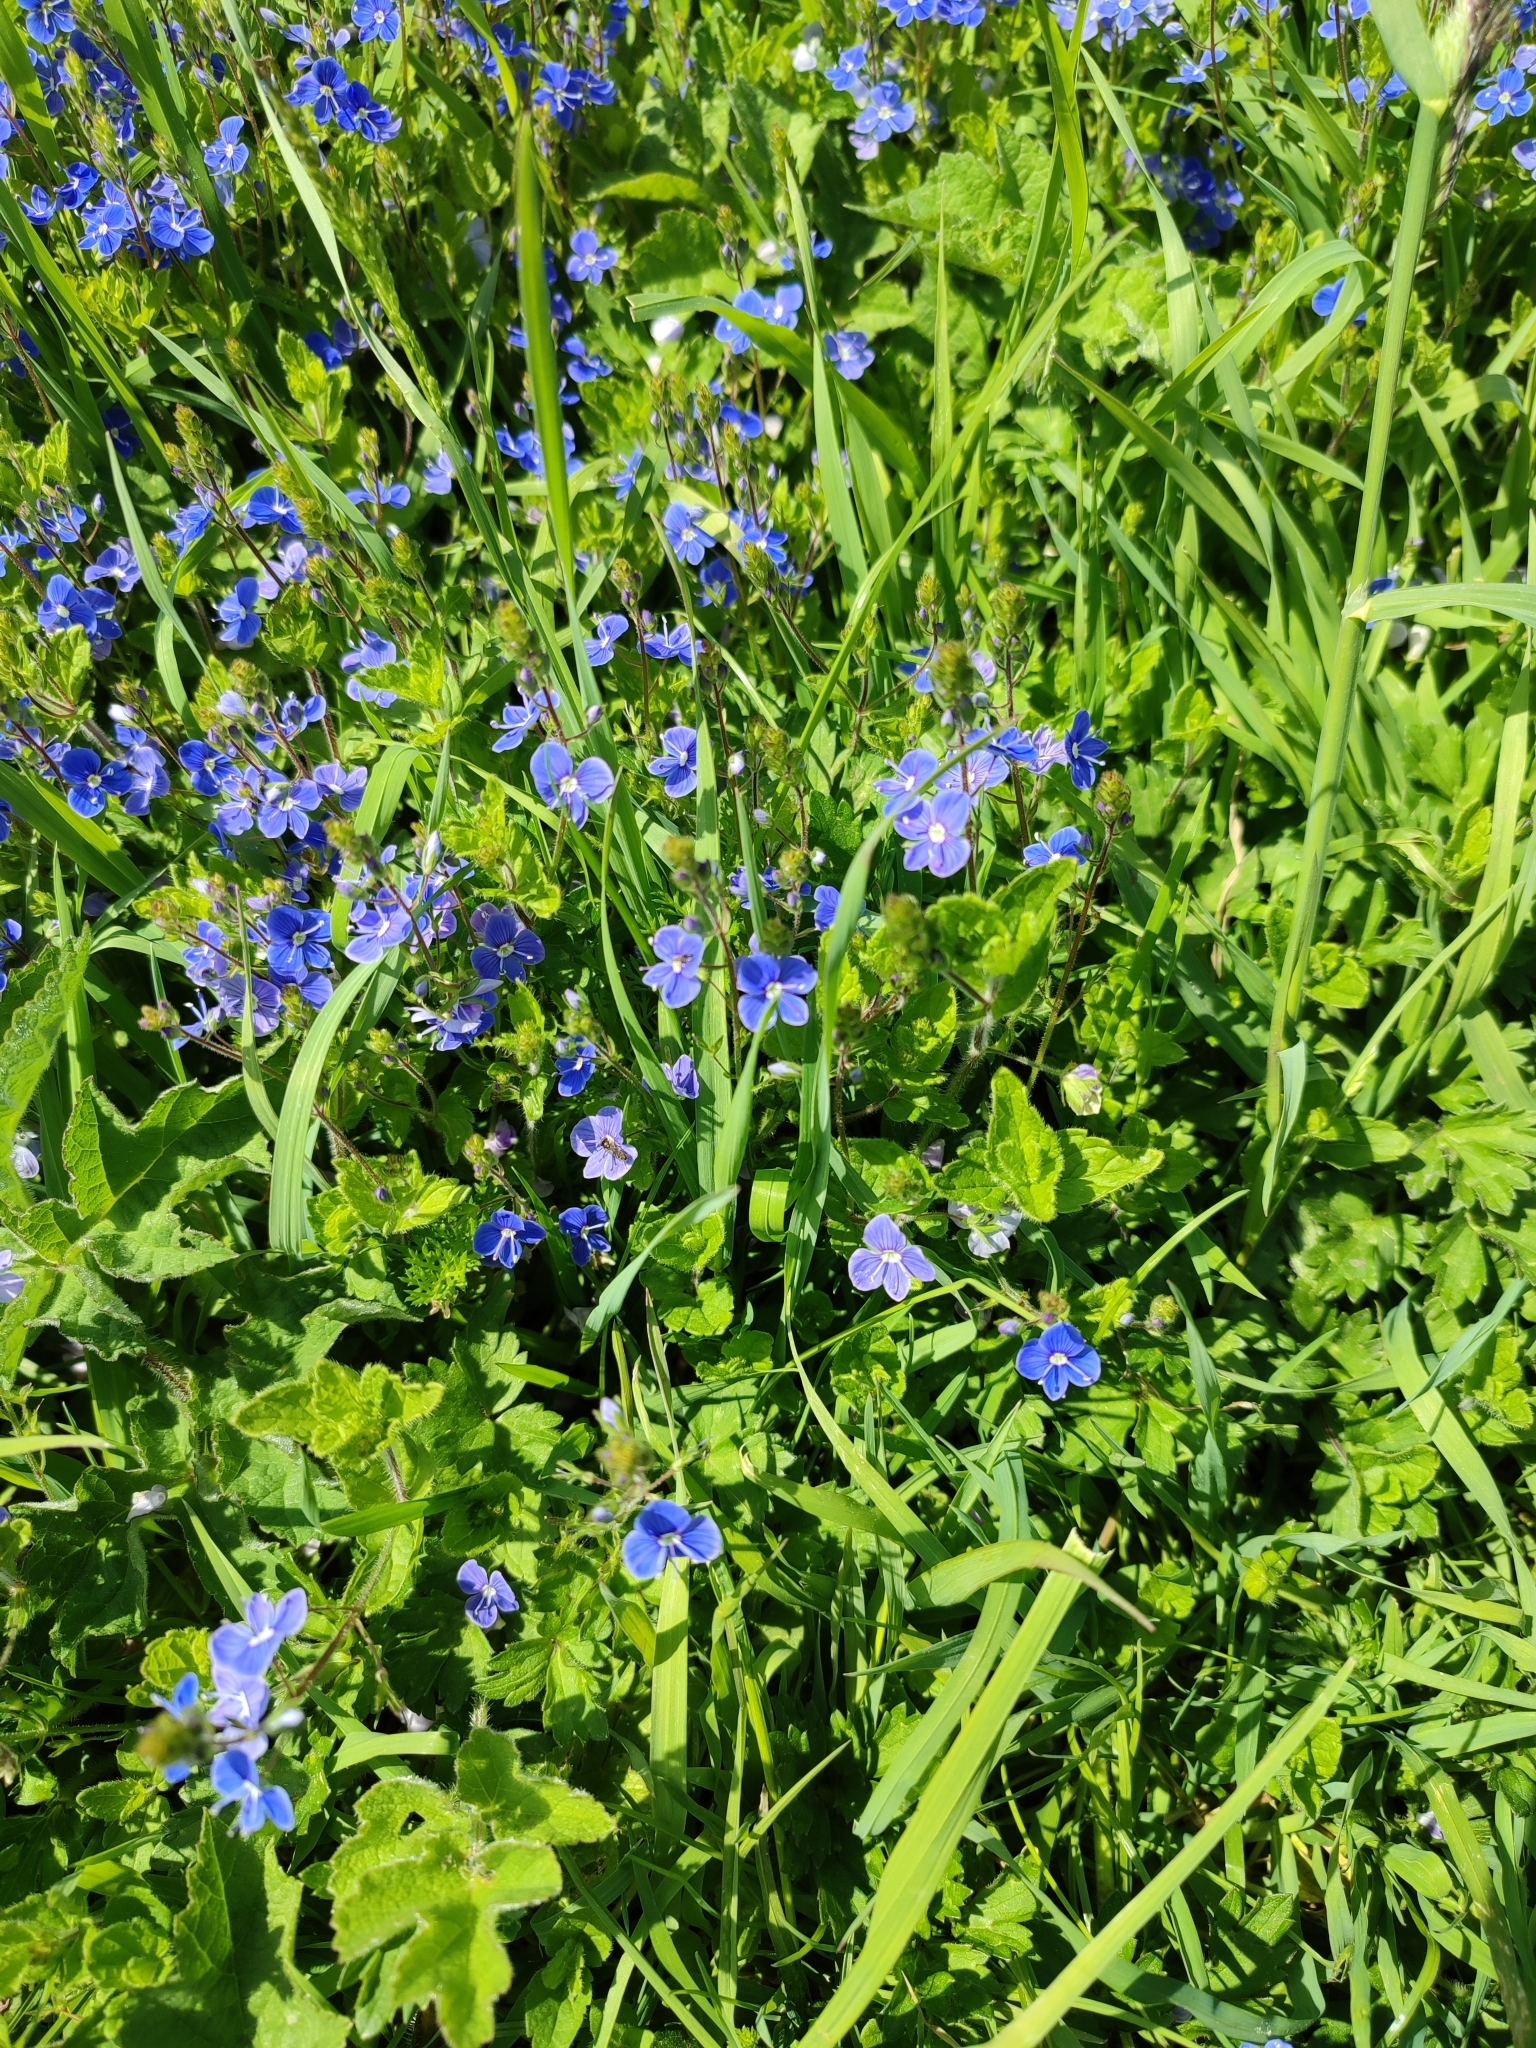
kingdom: Plantae
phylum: Tracheophyta
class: Magnoliopsida
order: Lamiales
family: Plantaginaceae
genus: Veronica
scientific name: Veronica chamaedrys
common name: Germander speedwell
